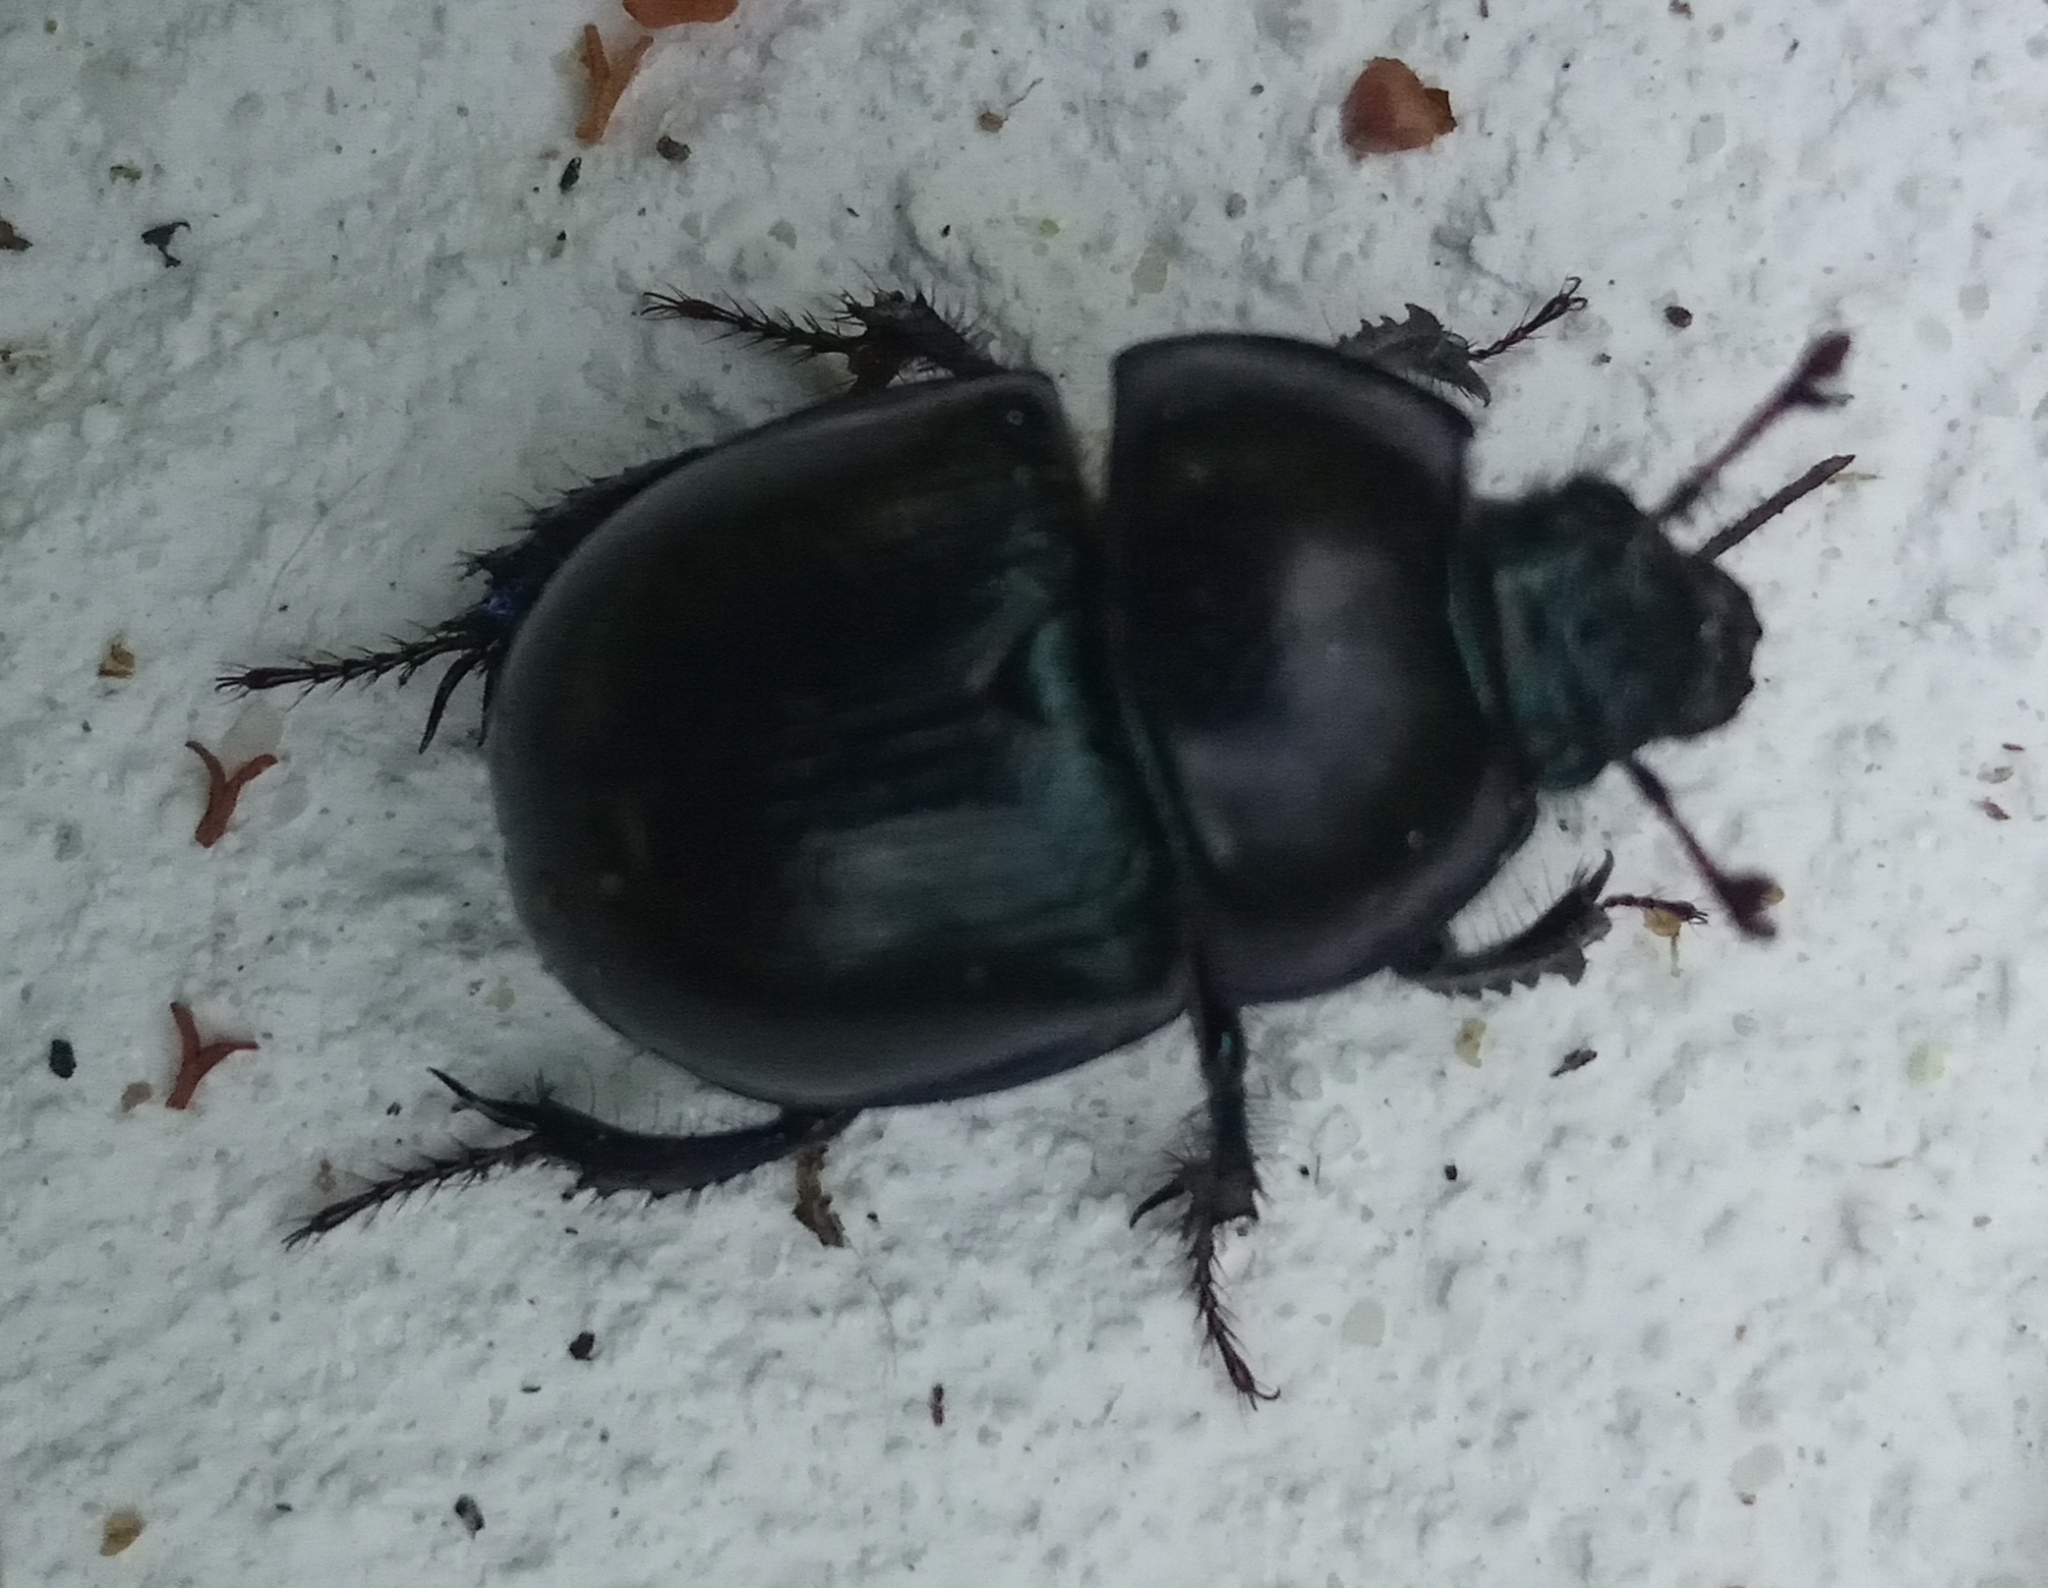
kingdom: Animalia
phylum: Arthropoda
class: Insecta
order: Coleoptera
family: Geotrupidae
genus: Anoplotrupes
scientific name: Anoplotrupes stercorosus
